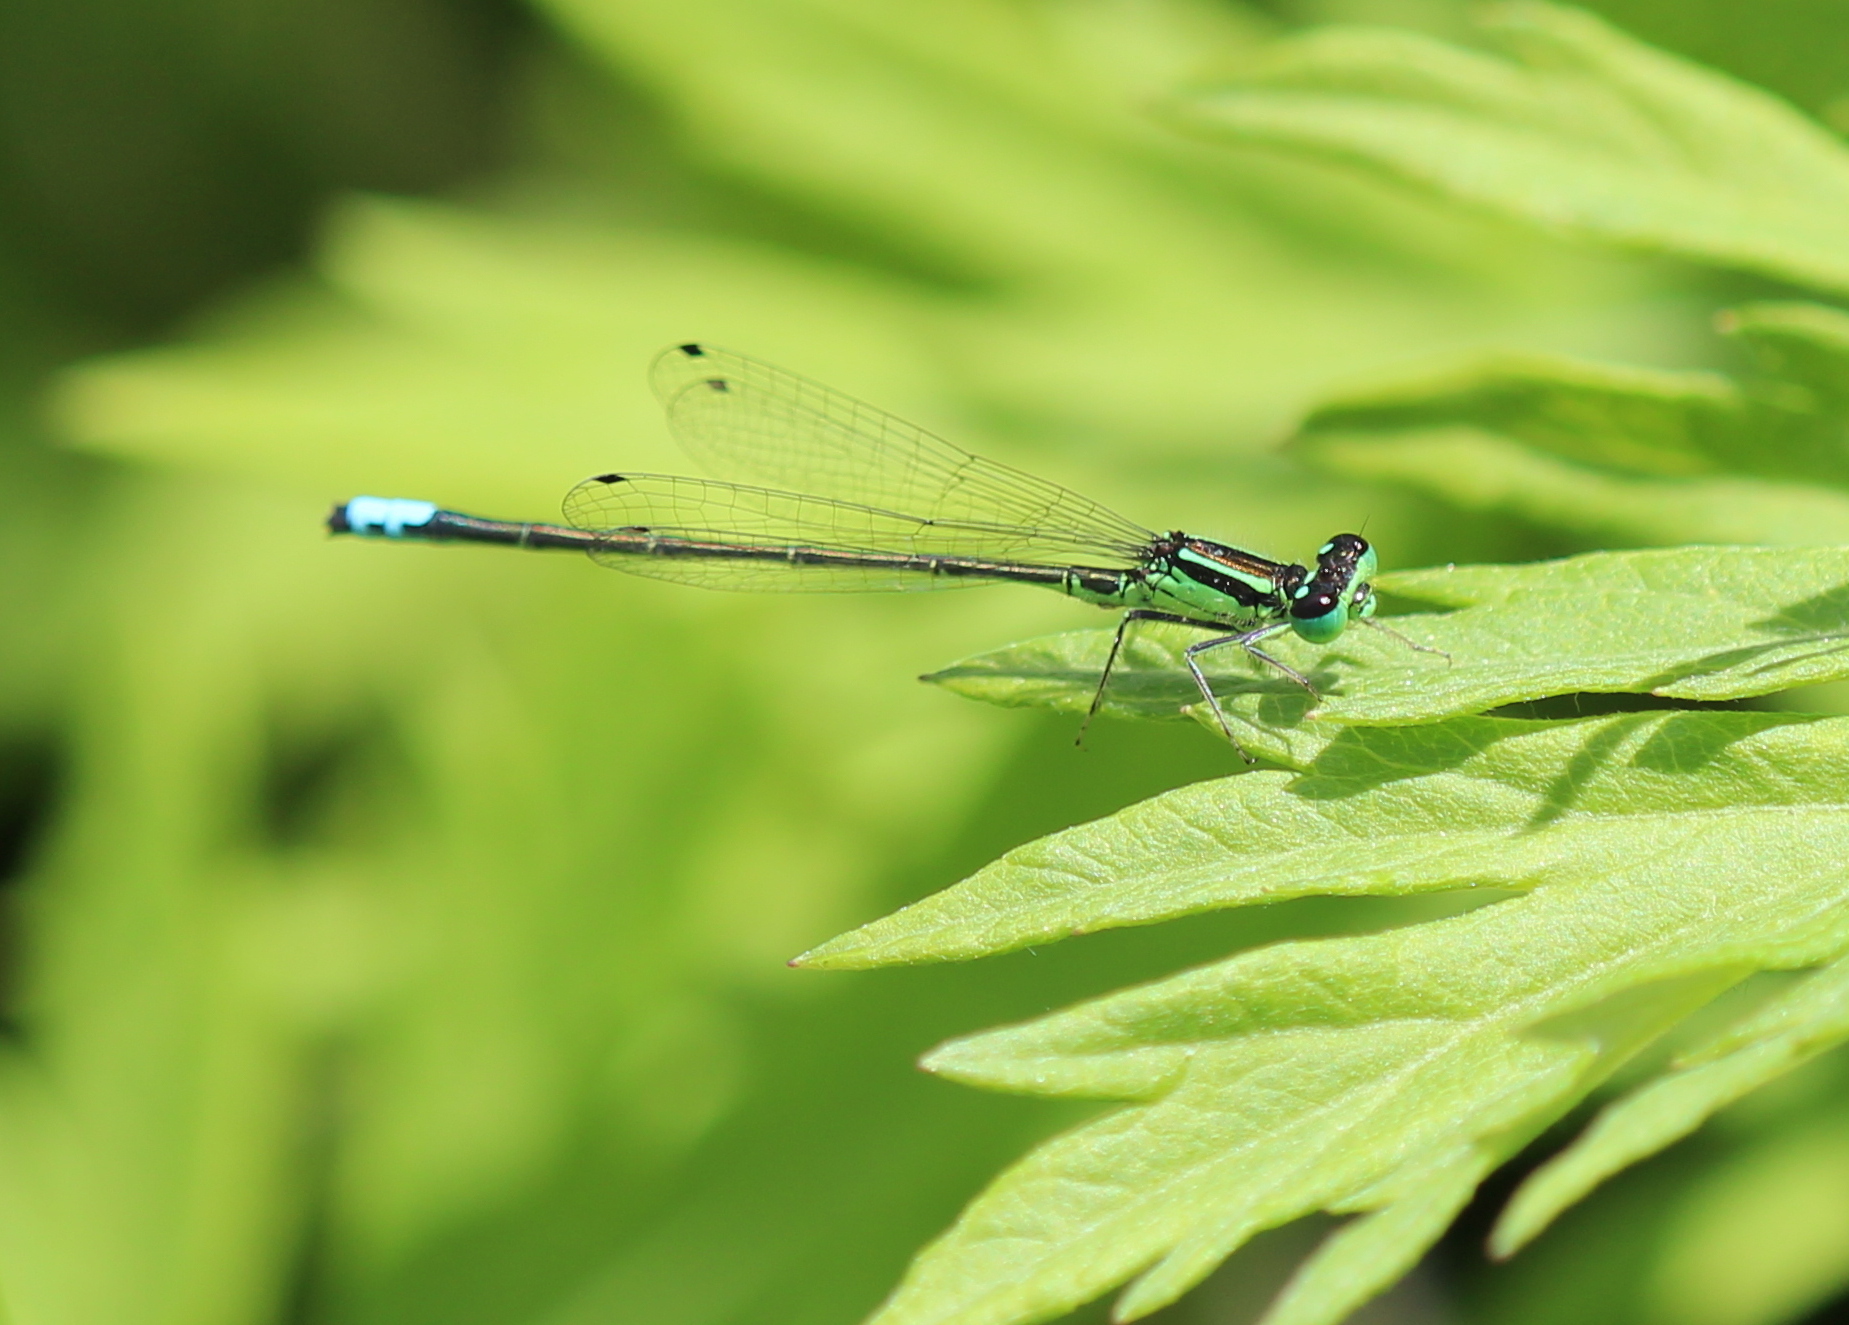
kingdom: Animalia
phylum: Arthropoda
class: Insecta
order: Odonata
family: Coenagrionidae
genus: Ischnura
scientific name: Ischnura verticalis
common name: Eastern forktail
